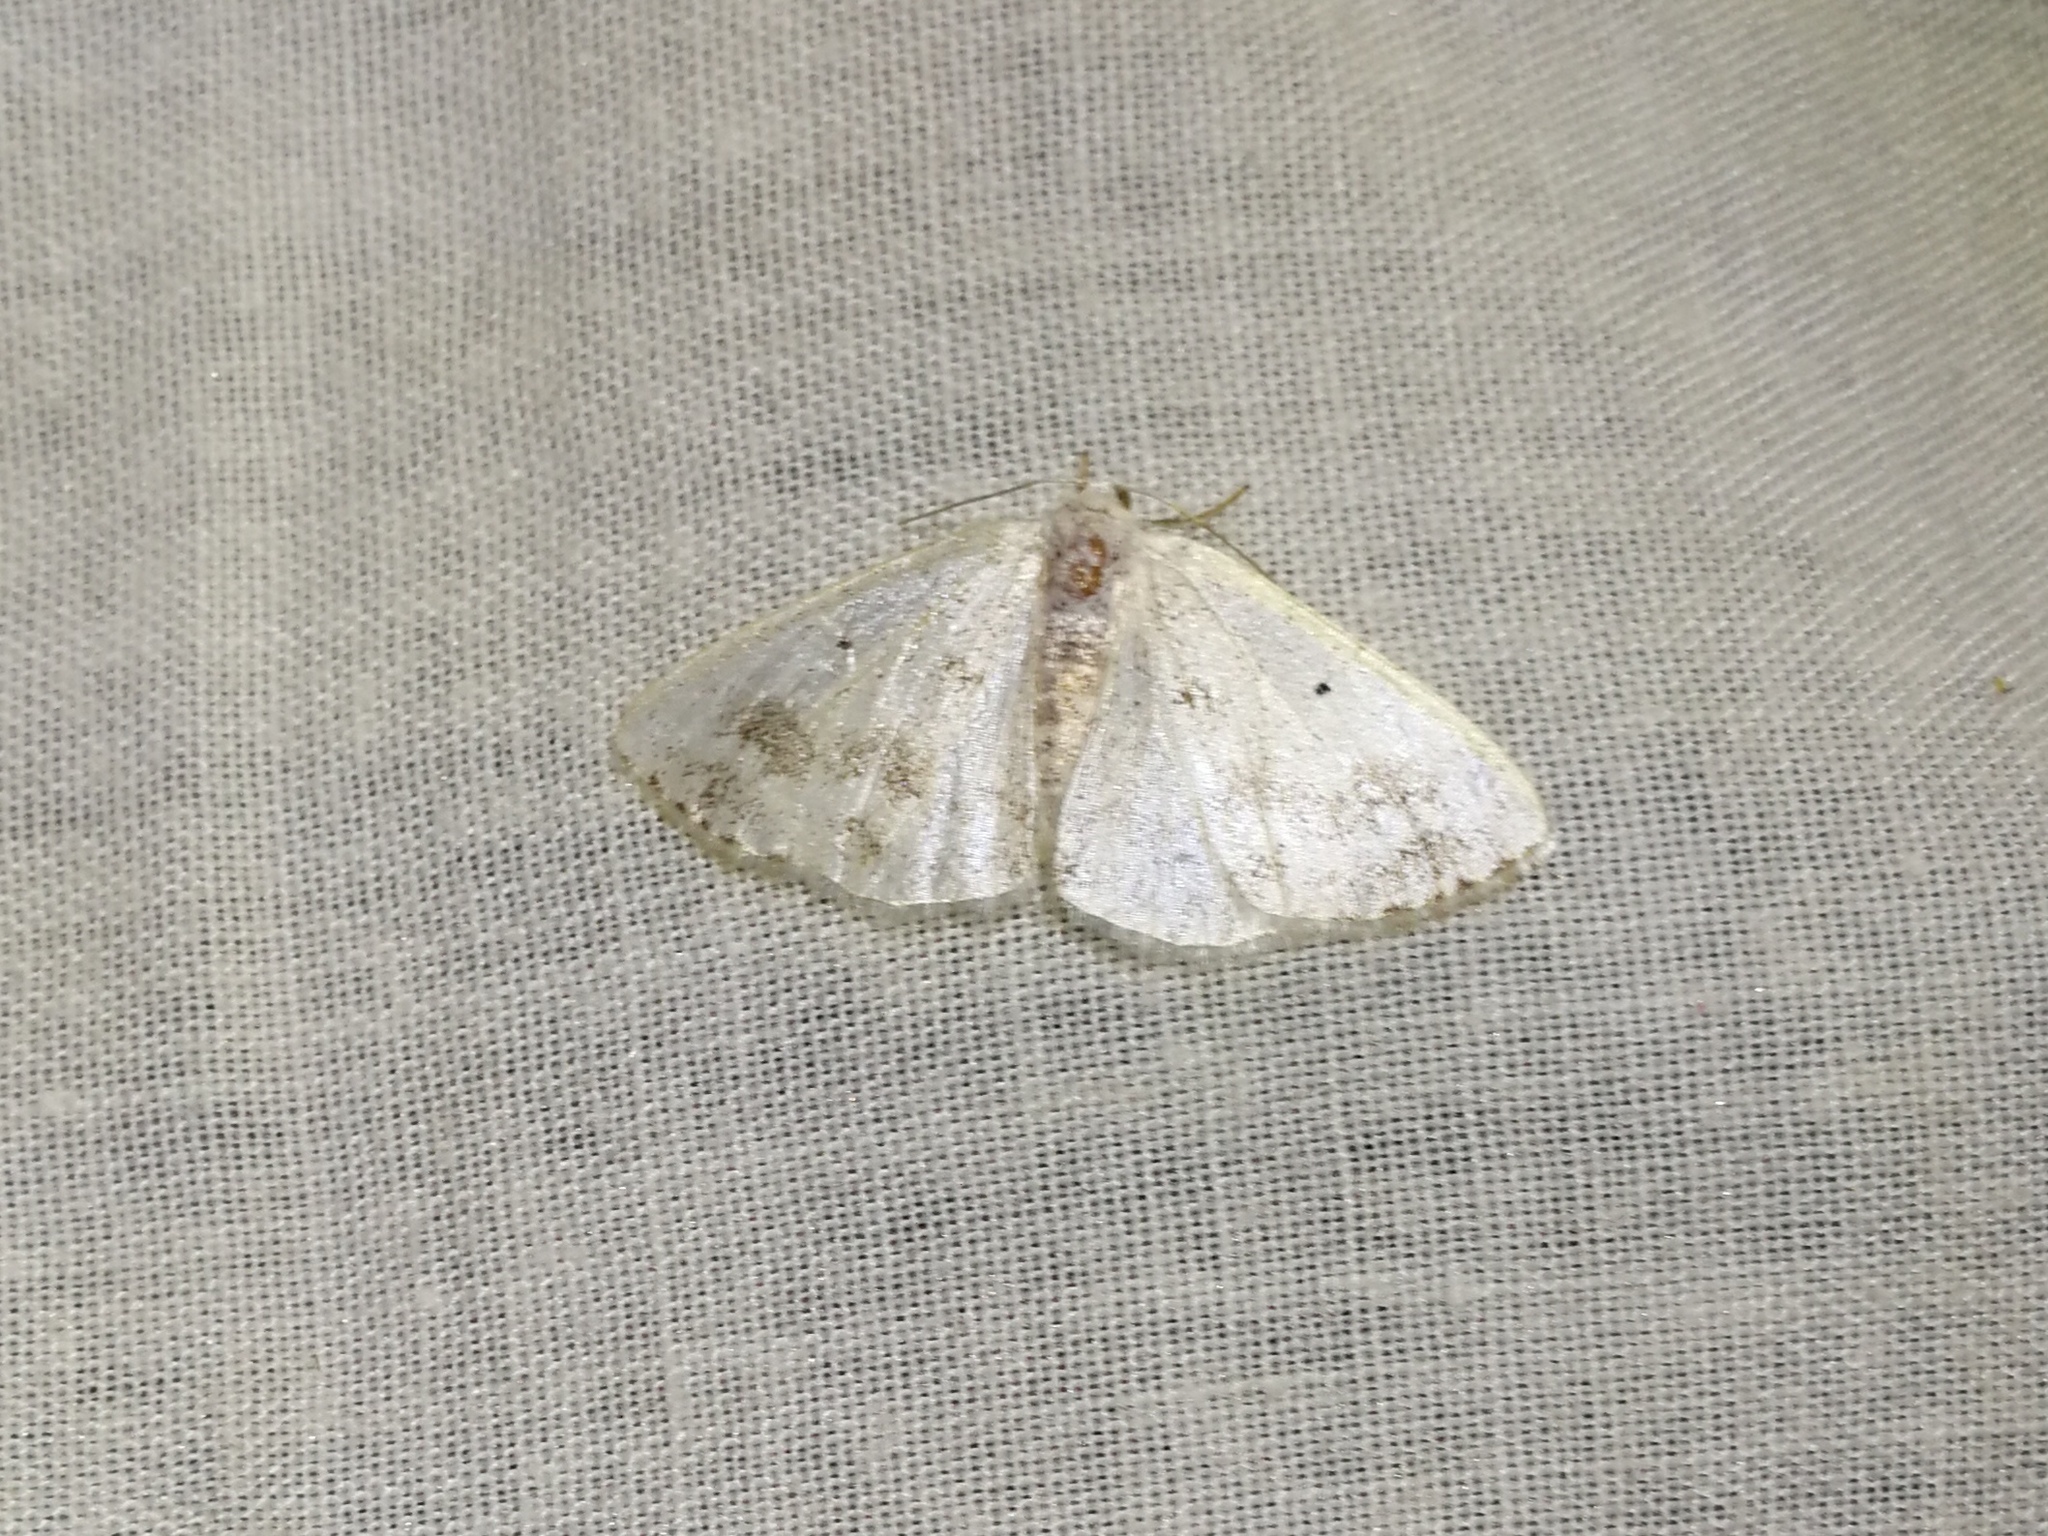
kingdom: Animalia
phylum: Arthropoda
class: Insecta
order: Lepidoptera
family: Geometridae
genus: Lomographa
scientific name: Lomographa temerata
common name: Clouded silver
